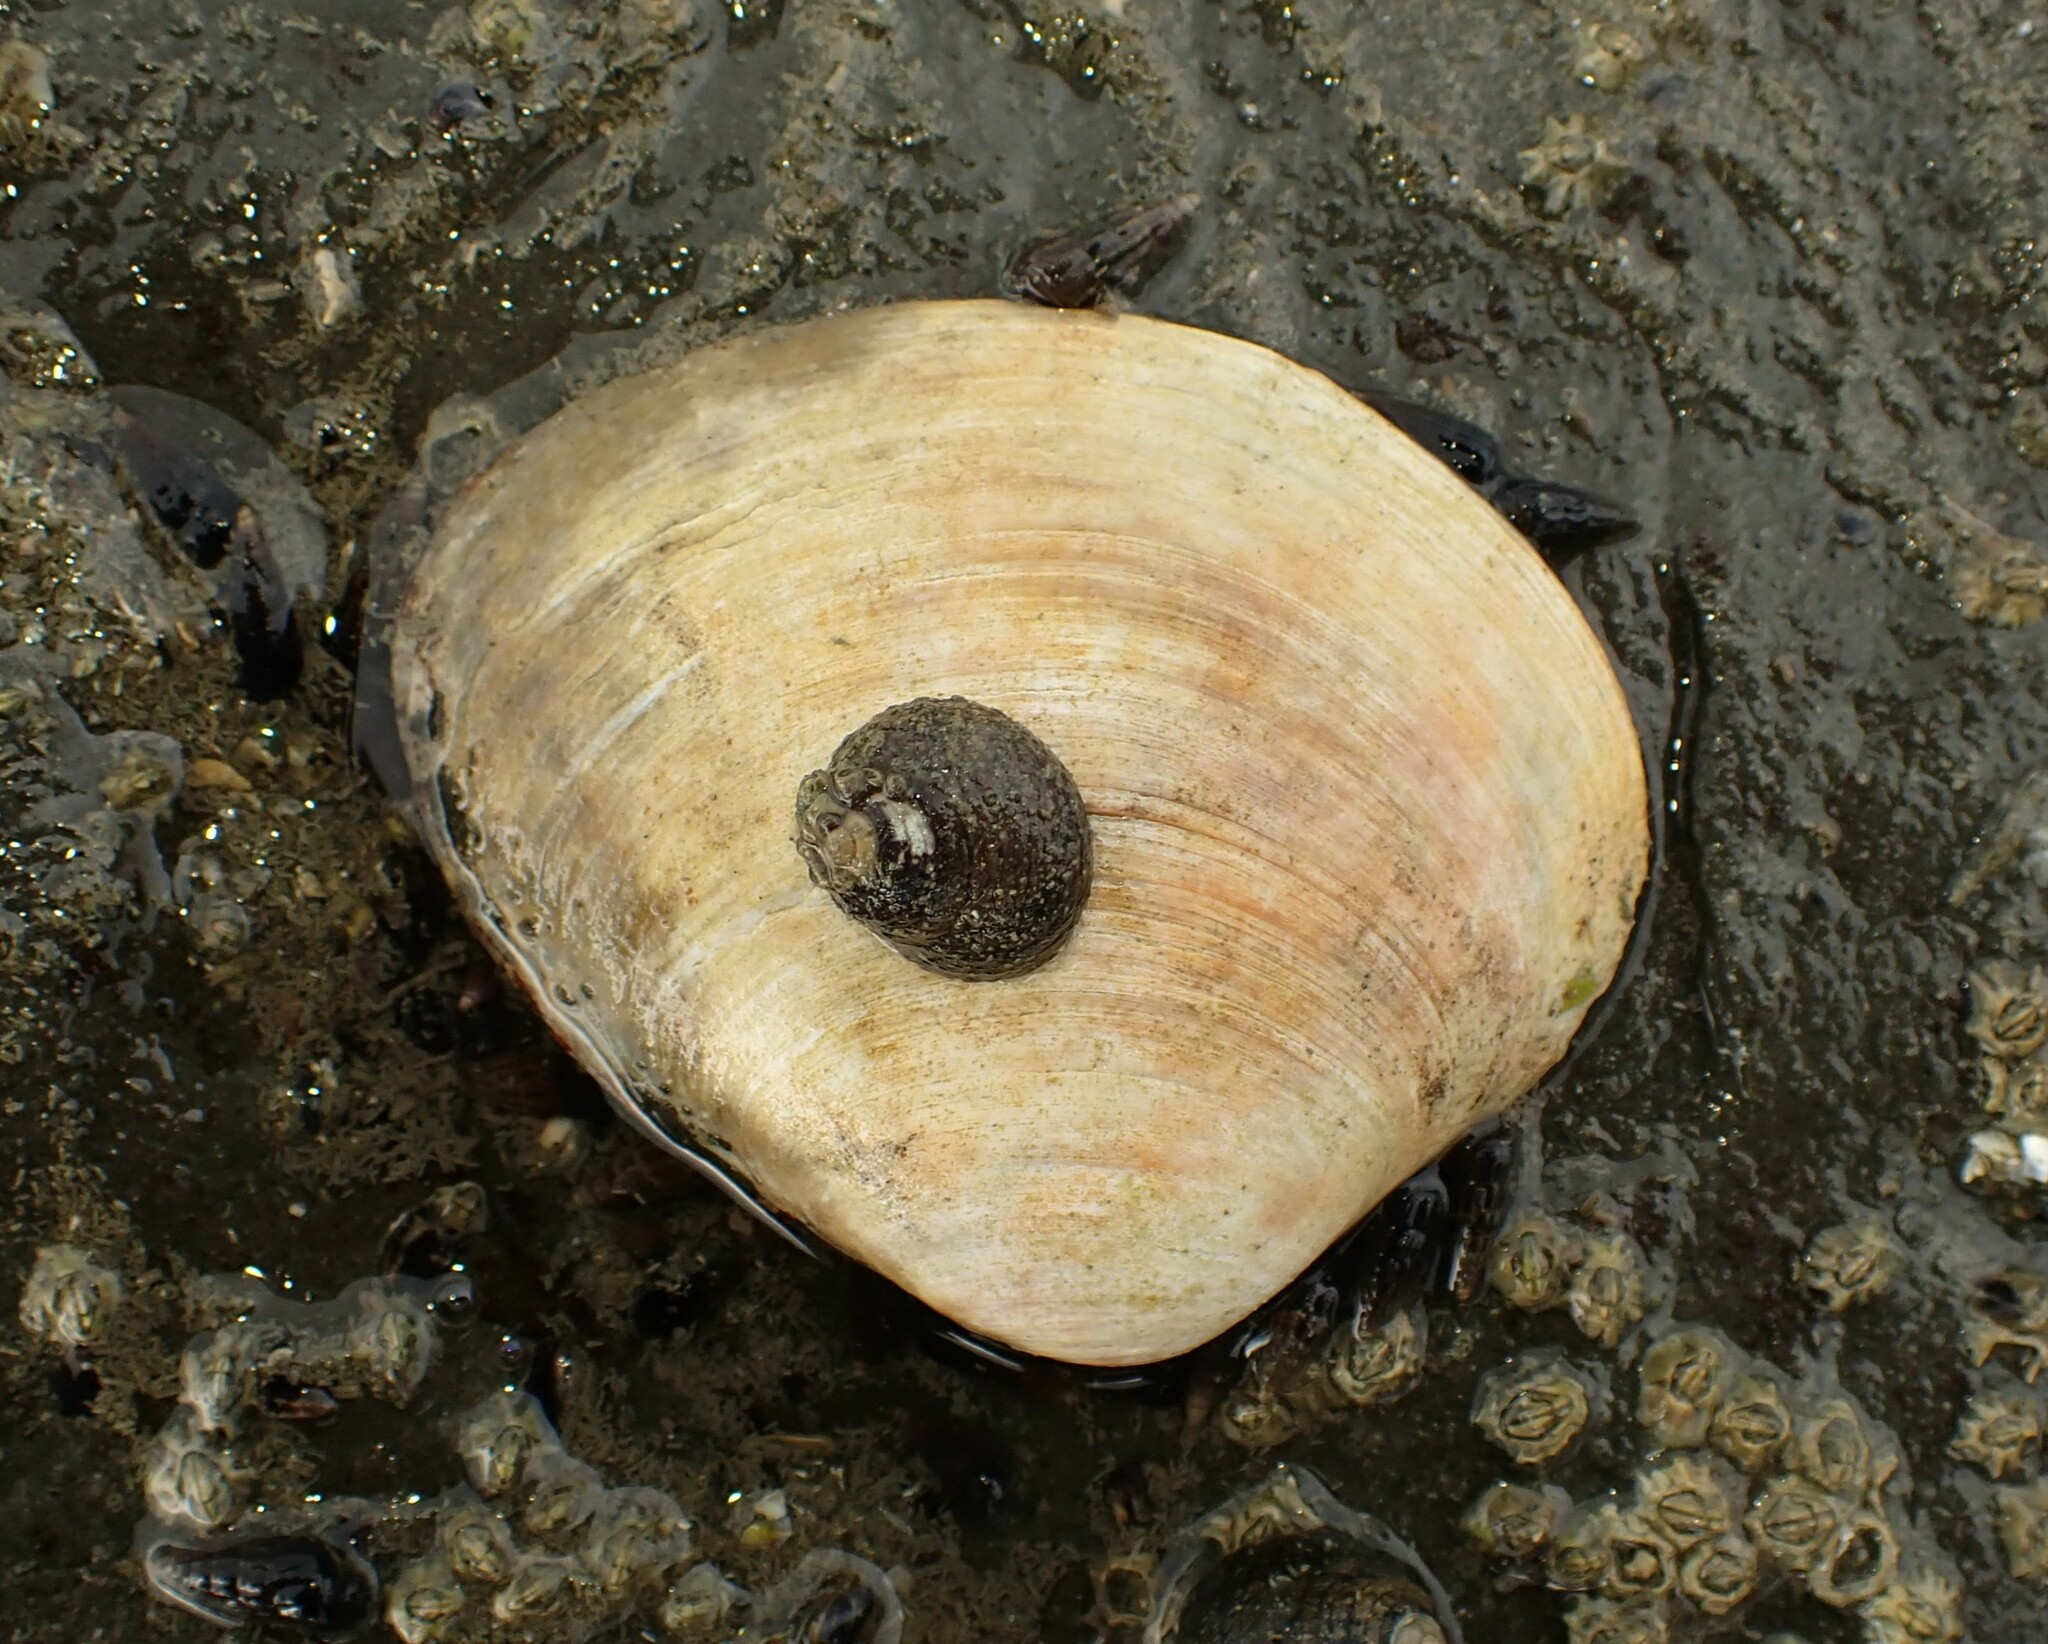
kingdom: Animalia
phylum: Mollusca
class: Gastropoda
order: Trochida
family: Trochidae
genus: Diloma
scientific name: Diloma aethiops
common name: Scorched monodont
